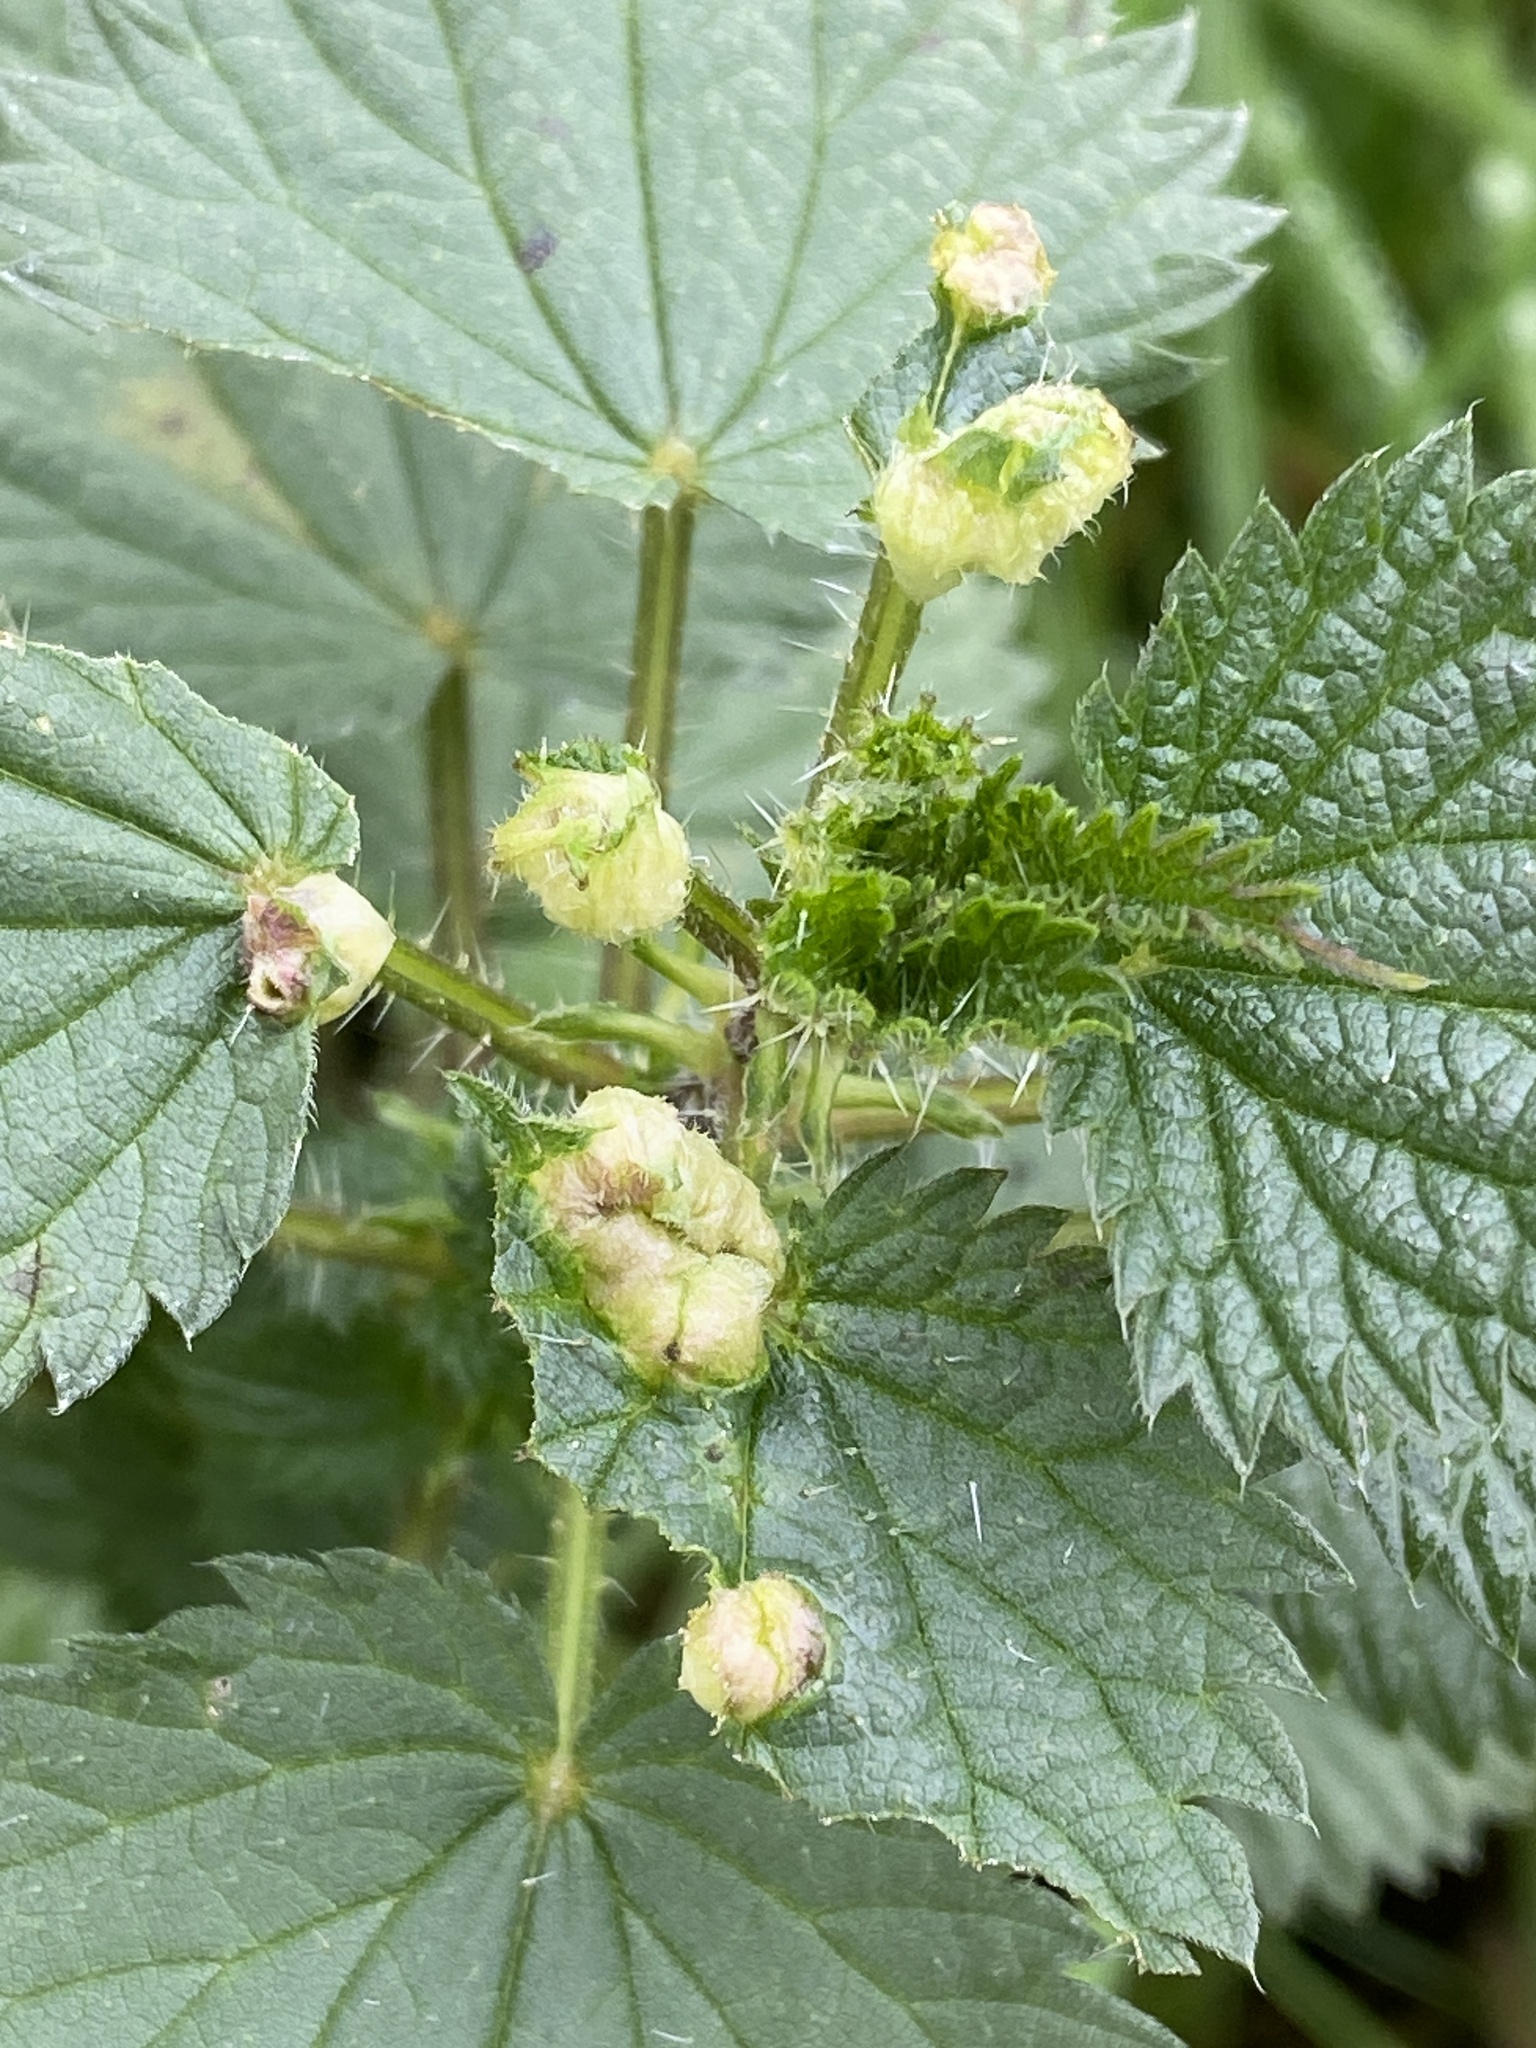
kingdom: Animalia
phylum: Arthropoda
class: Insecta
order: Diptera
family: Cecidomyiidae
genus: Dasineura
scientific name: Dasineura urticae
